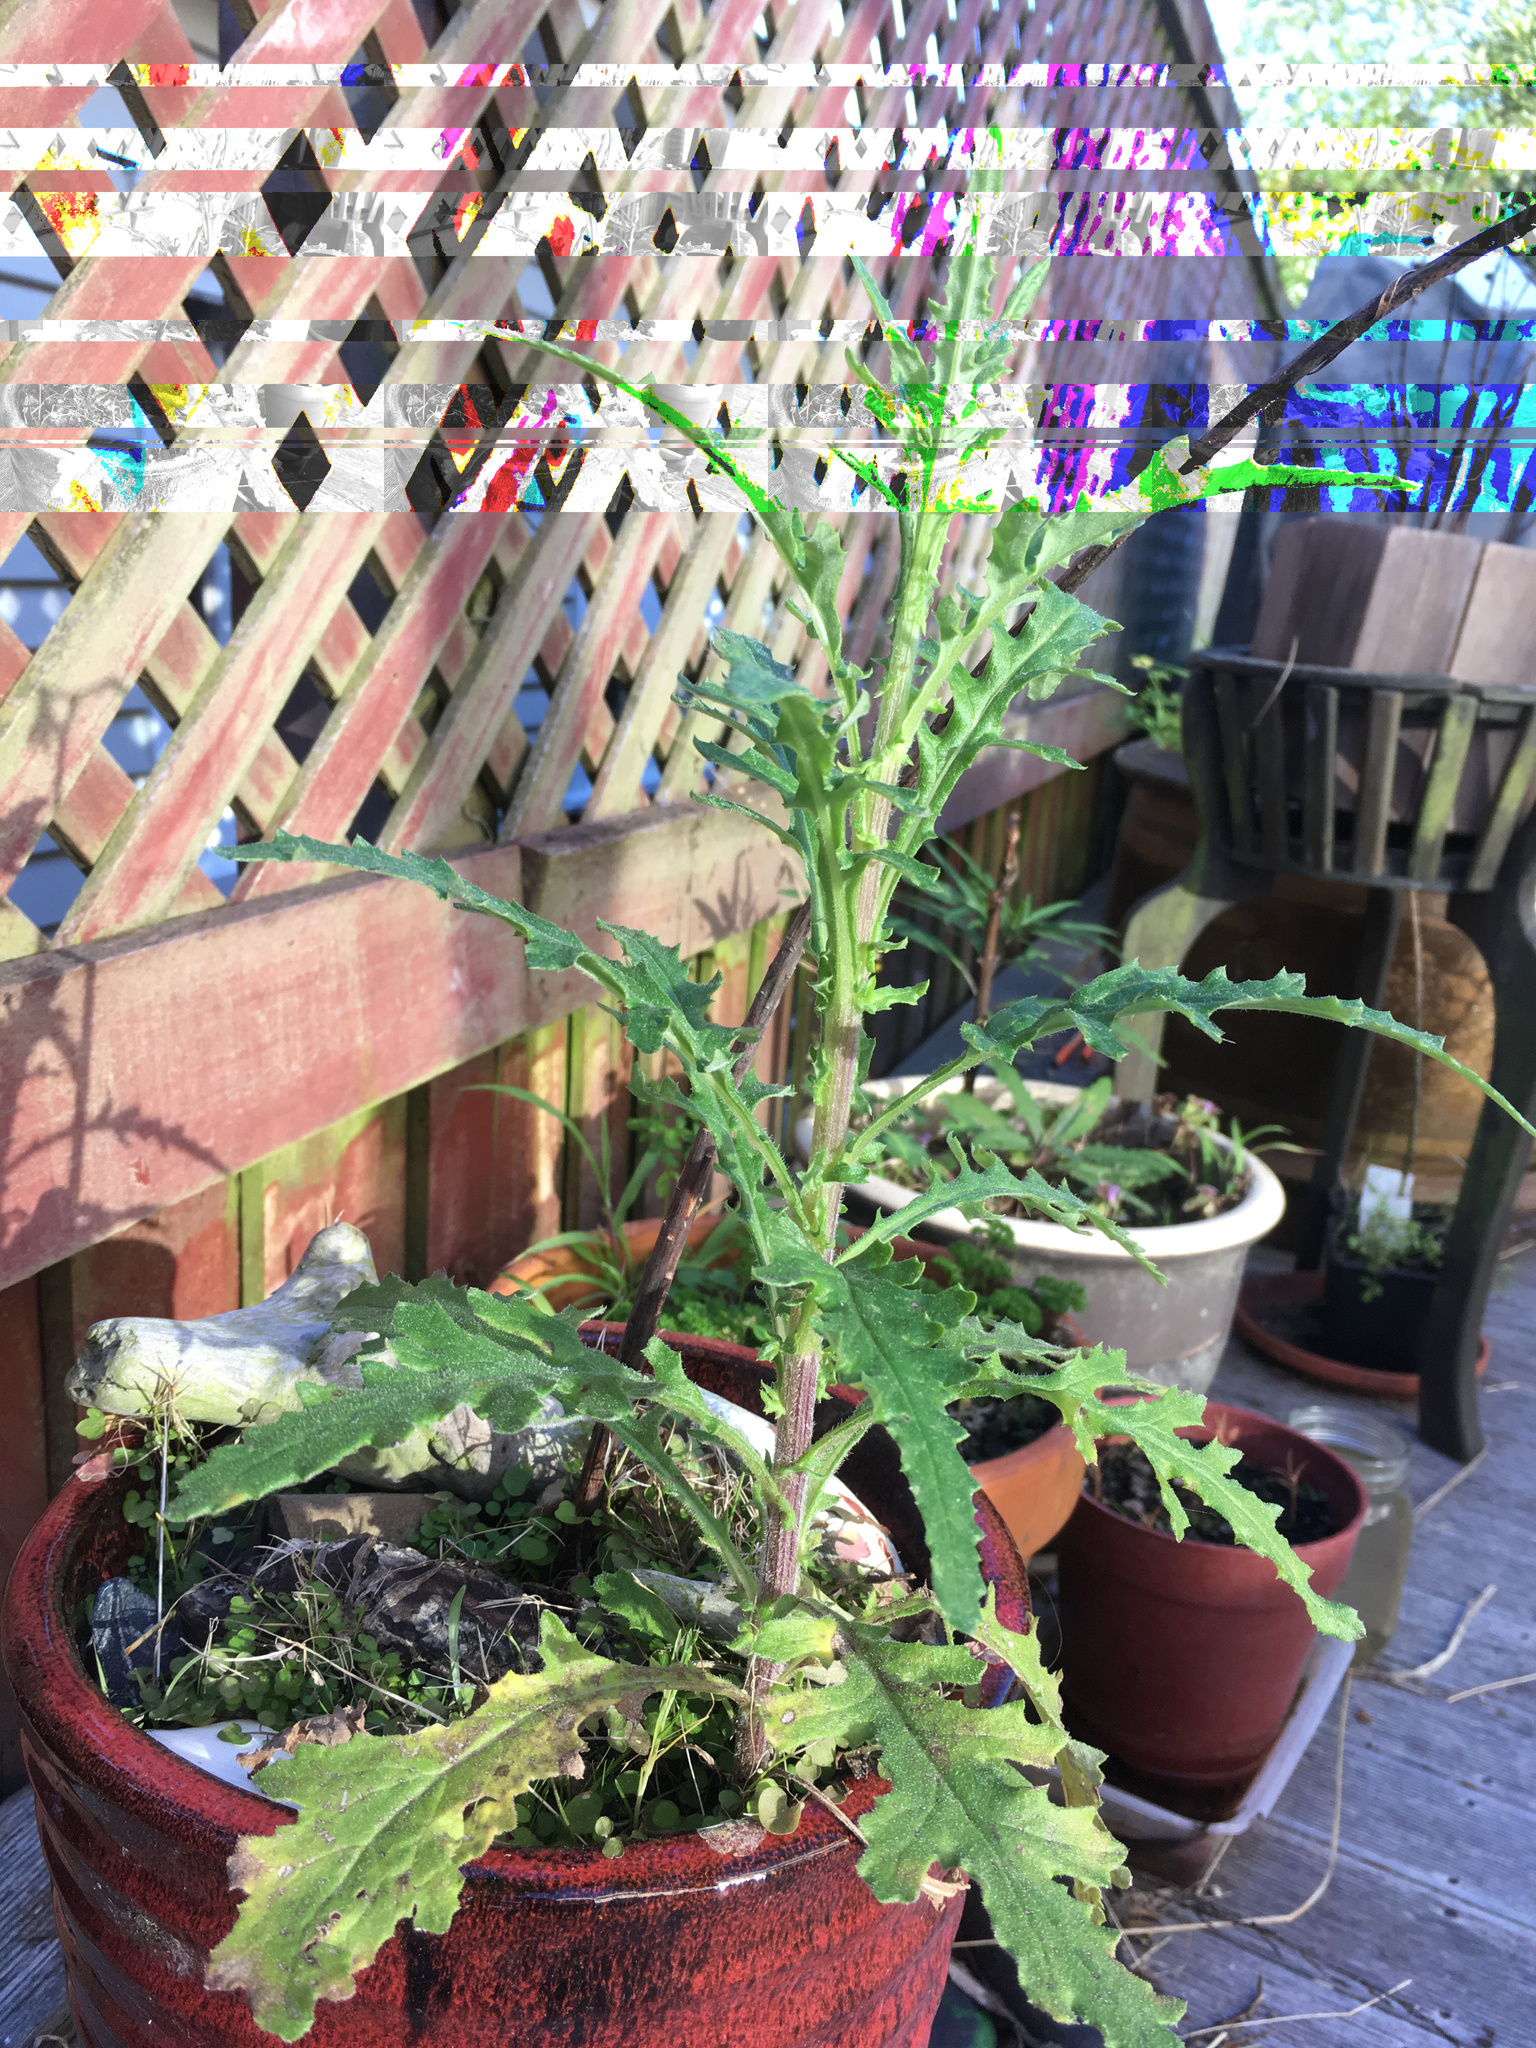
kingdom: Plantae
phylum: Tracheophyta
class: Magnoliopsida
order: Asterales
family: Asteraceae
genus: Senecio
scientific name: Senecio hispidulus
